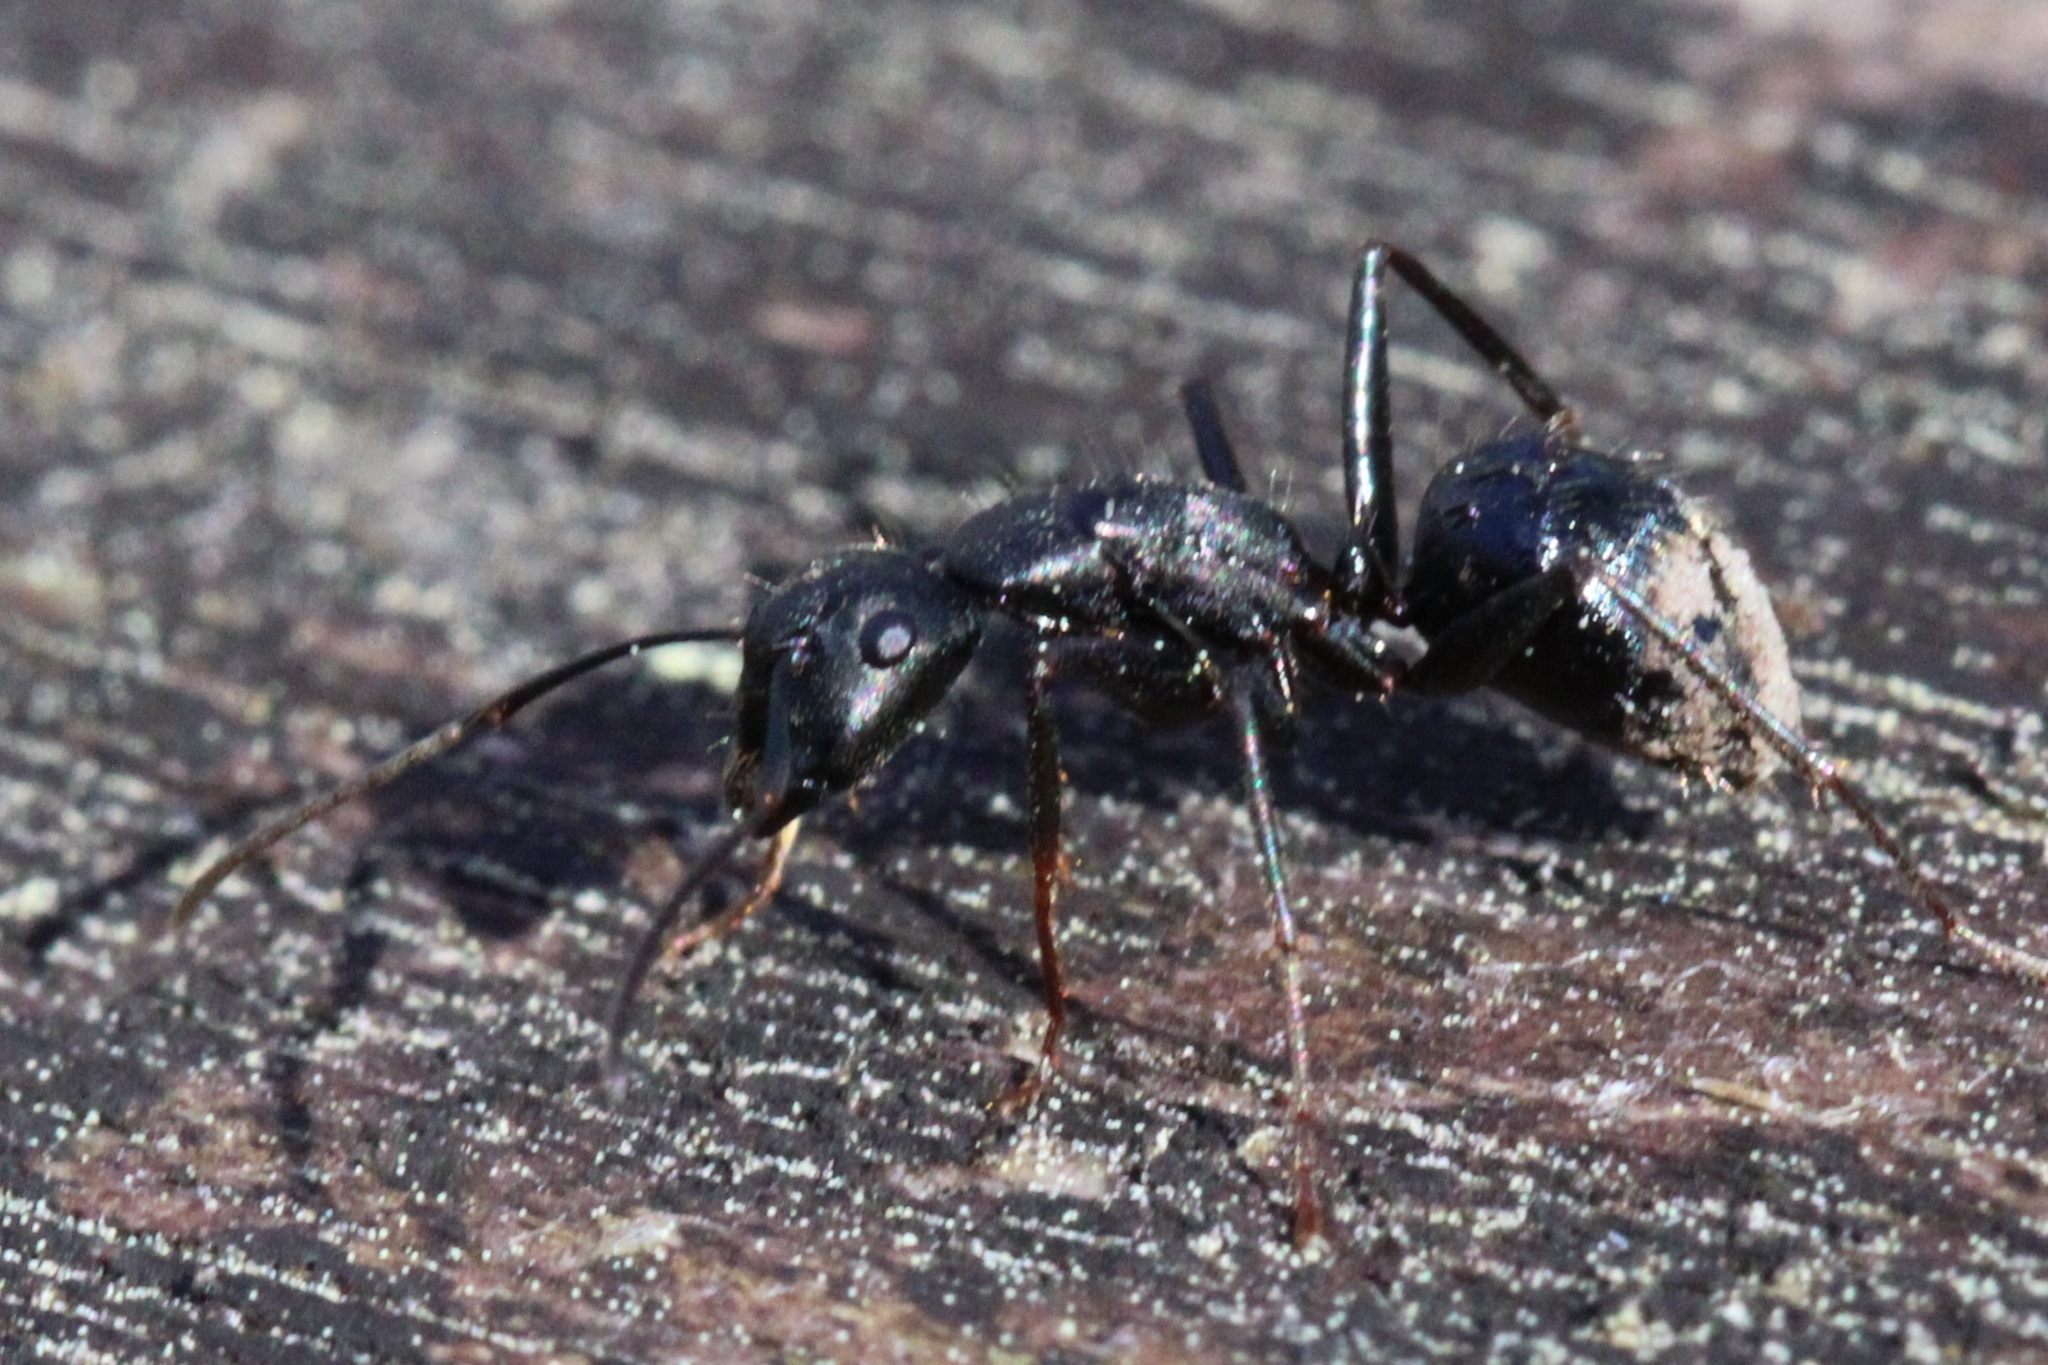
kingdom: Animalia
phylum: Arthropoda
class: Insecta
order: Hymenoptera
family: Formicidae
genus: Camponotus
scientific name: Camponotus pennsylvanicus
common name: Black carpenter ant
